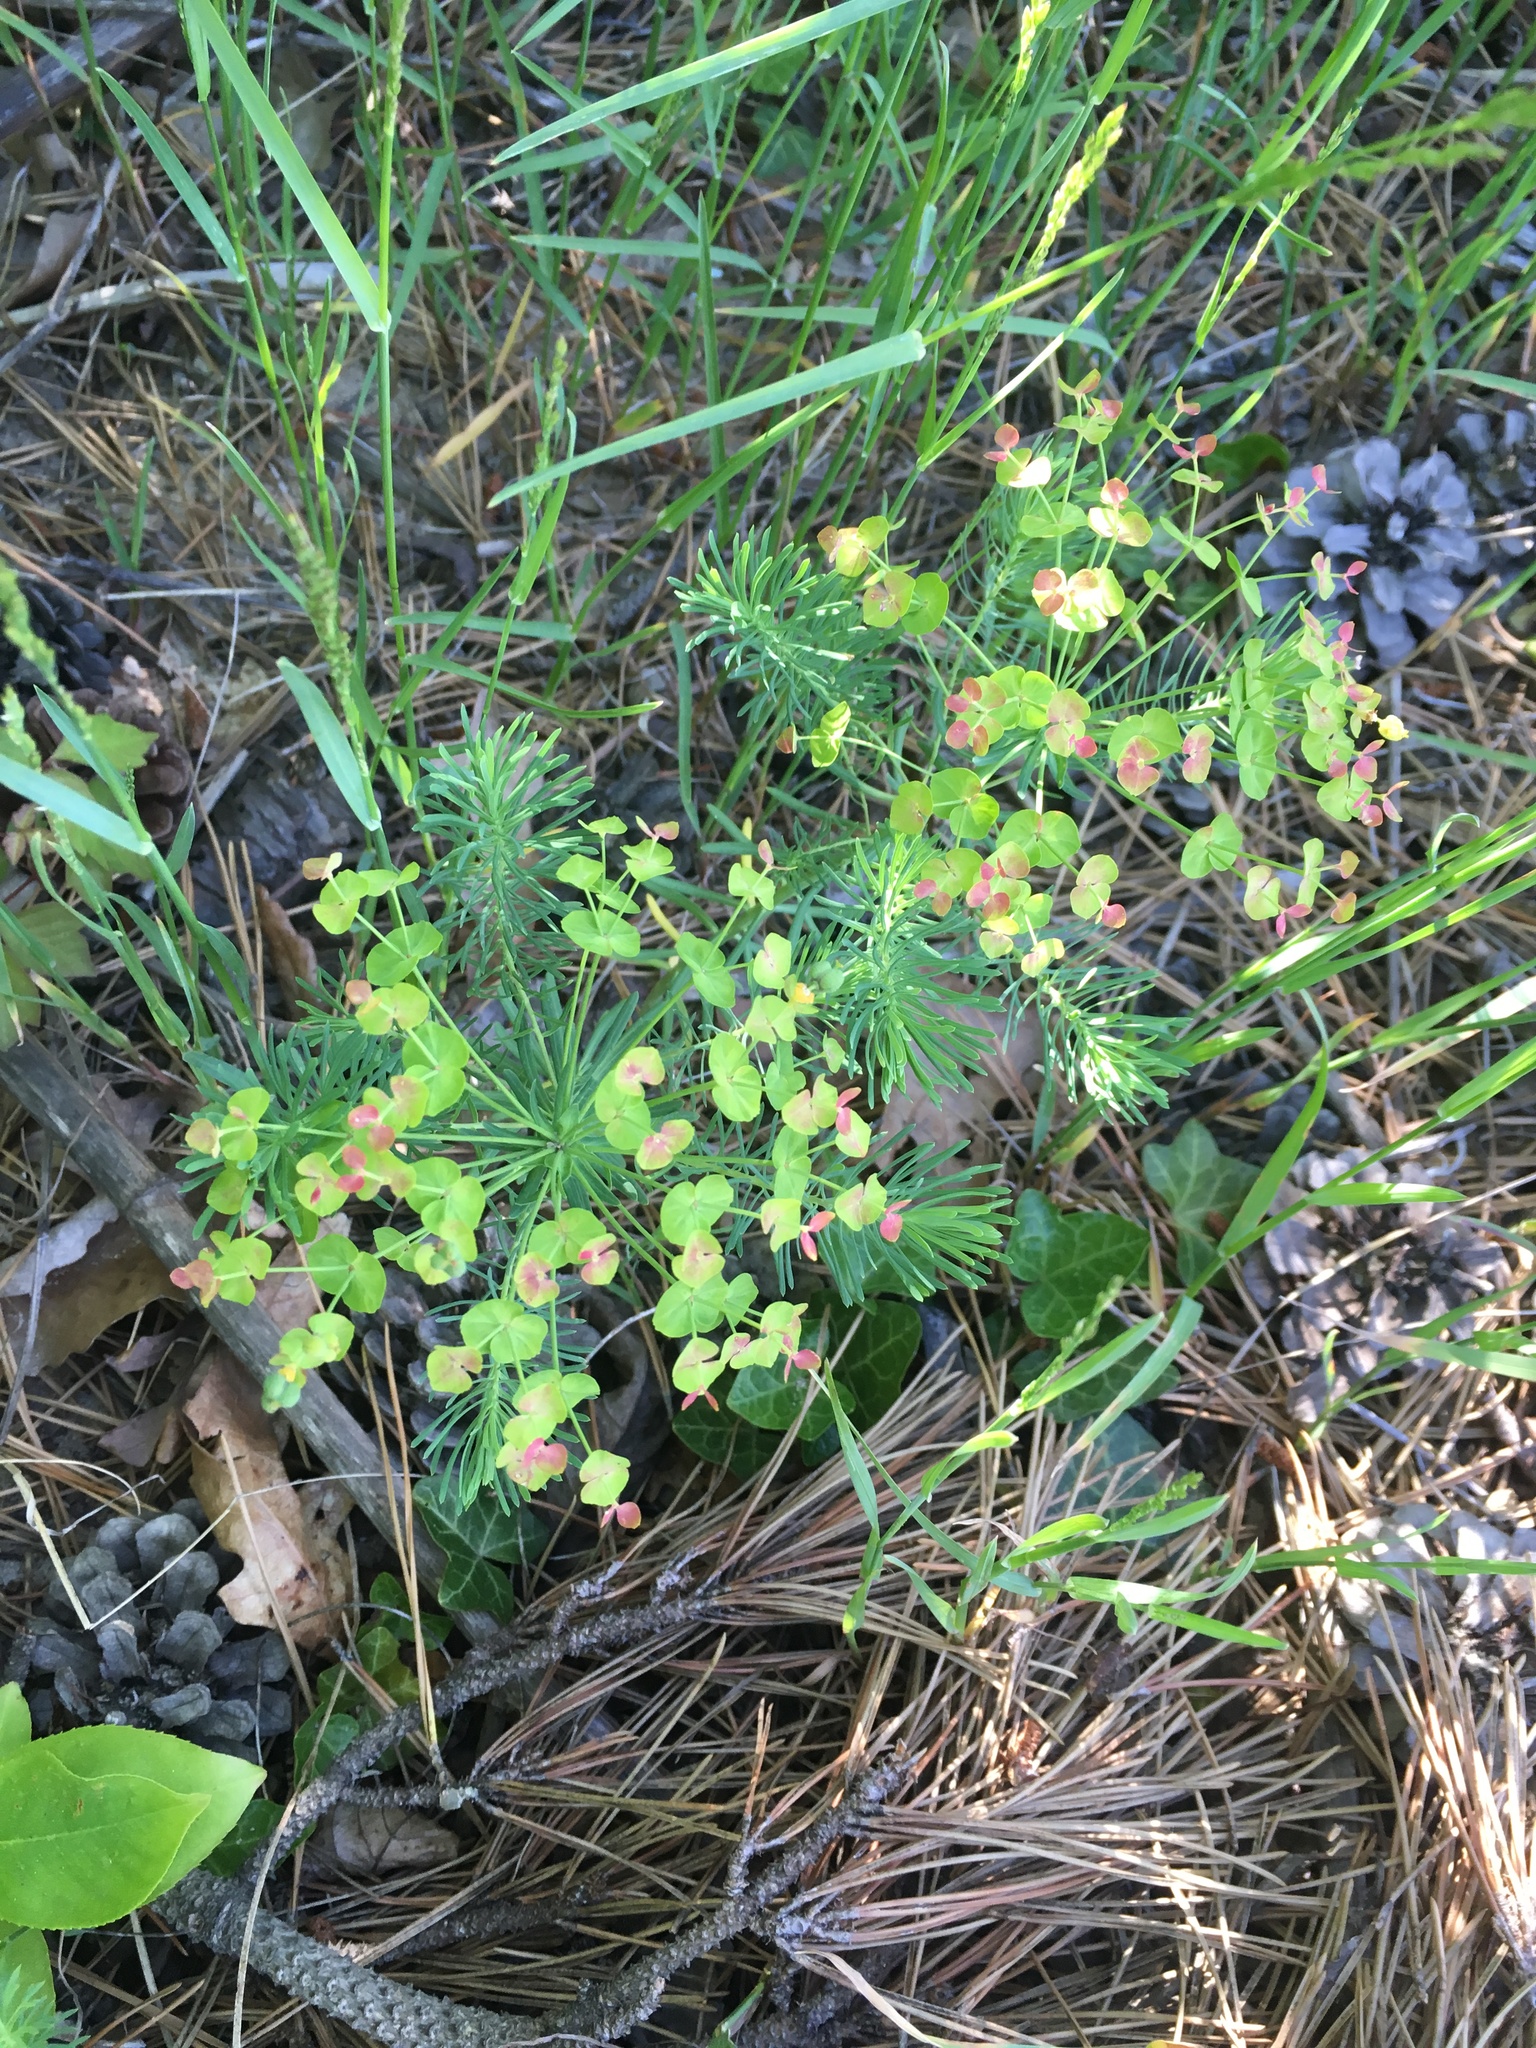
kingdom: Plantae
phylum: Tracheophyta
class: Magnoliopsida
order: Malpighiales
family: Euphorbiaceae
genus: Euphorbia
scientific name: Euphorbia cyparissias
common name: Cypress spurge
